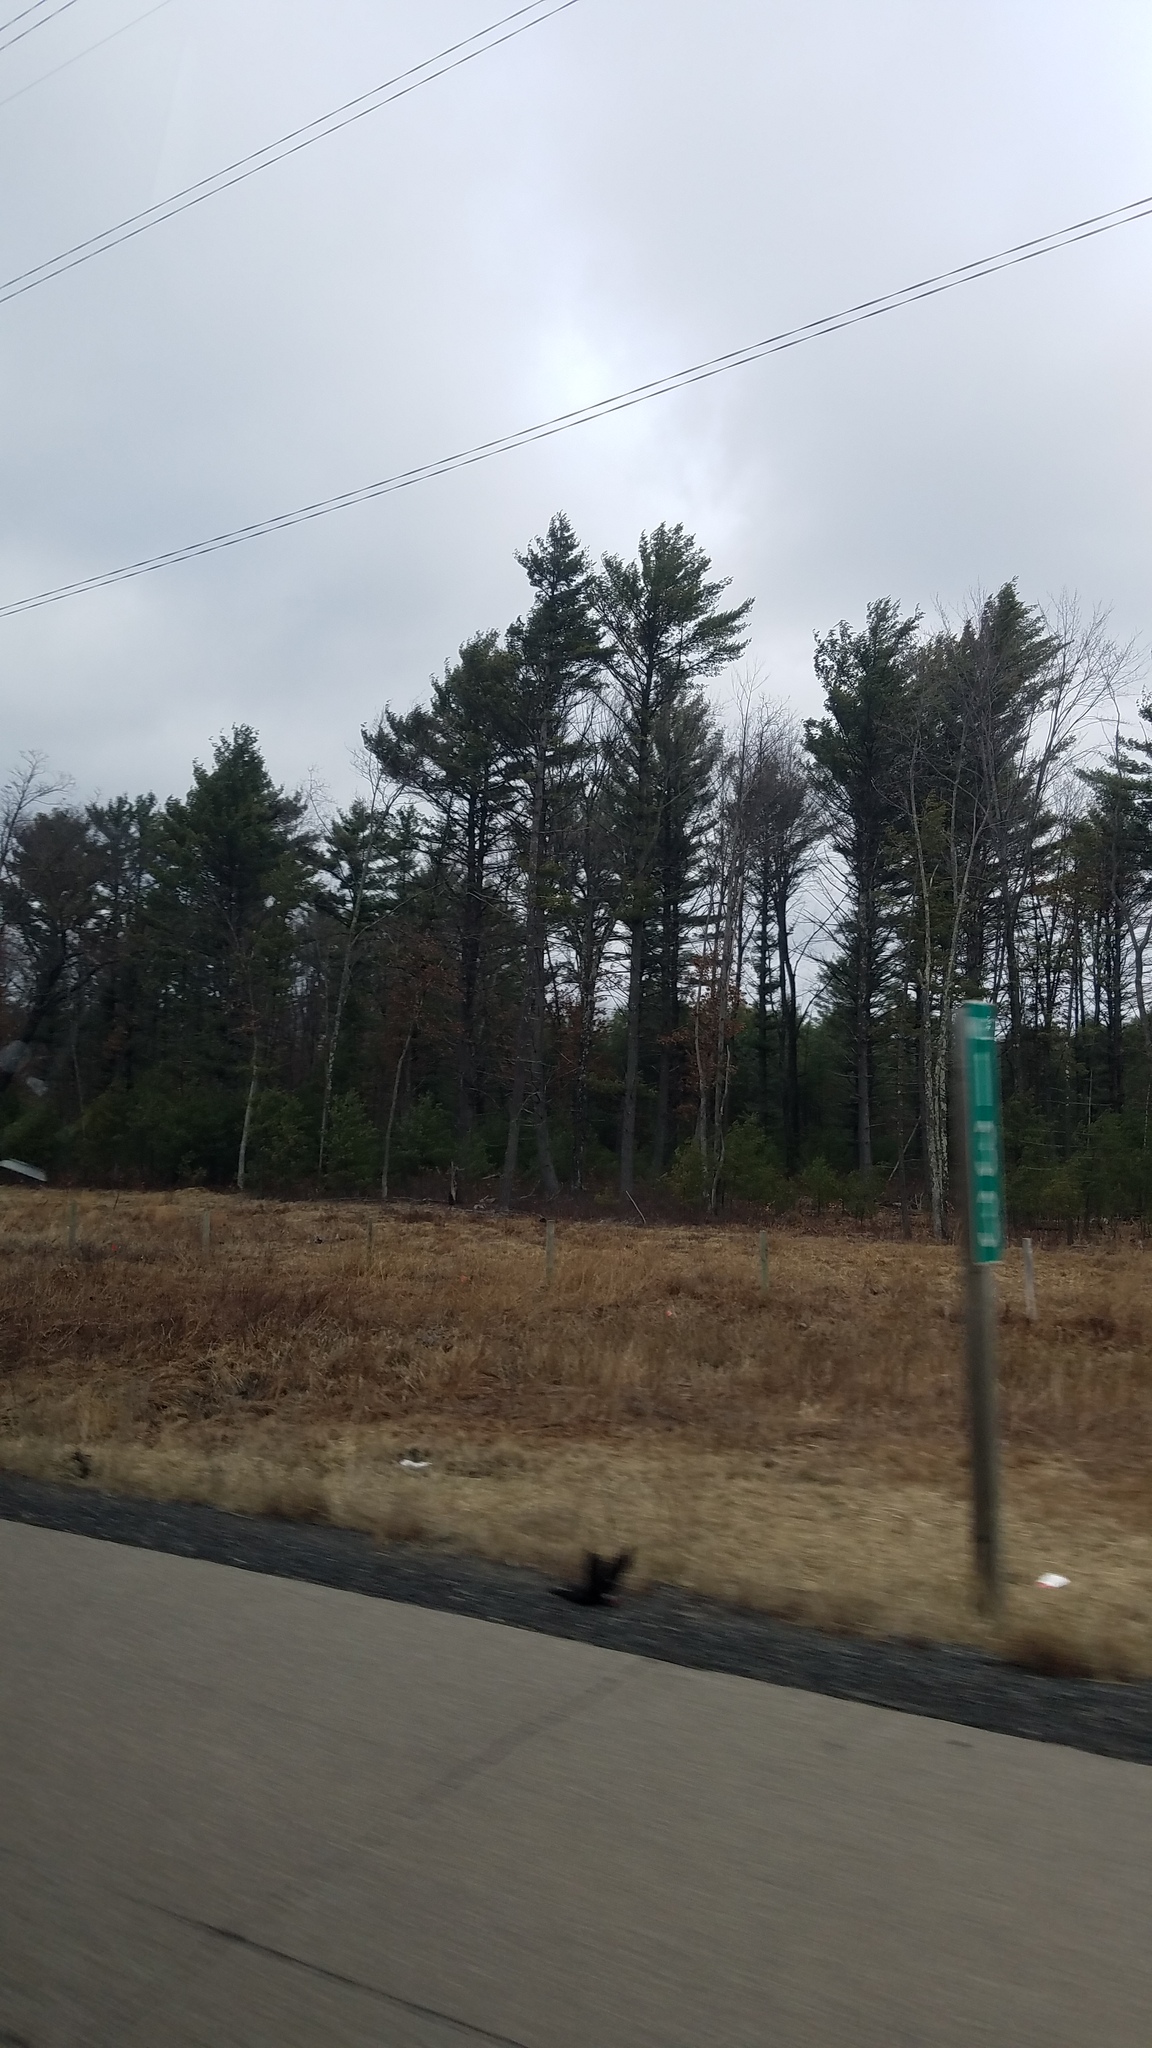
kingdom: Plantae
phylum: Tracheophyta
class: Pinopsida
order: Pinales
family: Pinaceae
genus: Pinus
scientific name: Pinus strobus
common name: Weymouth pine
